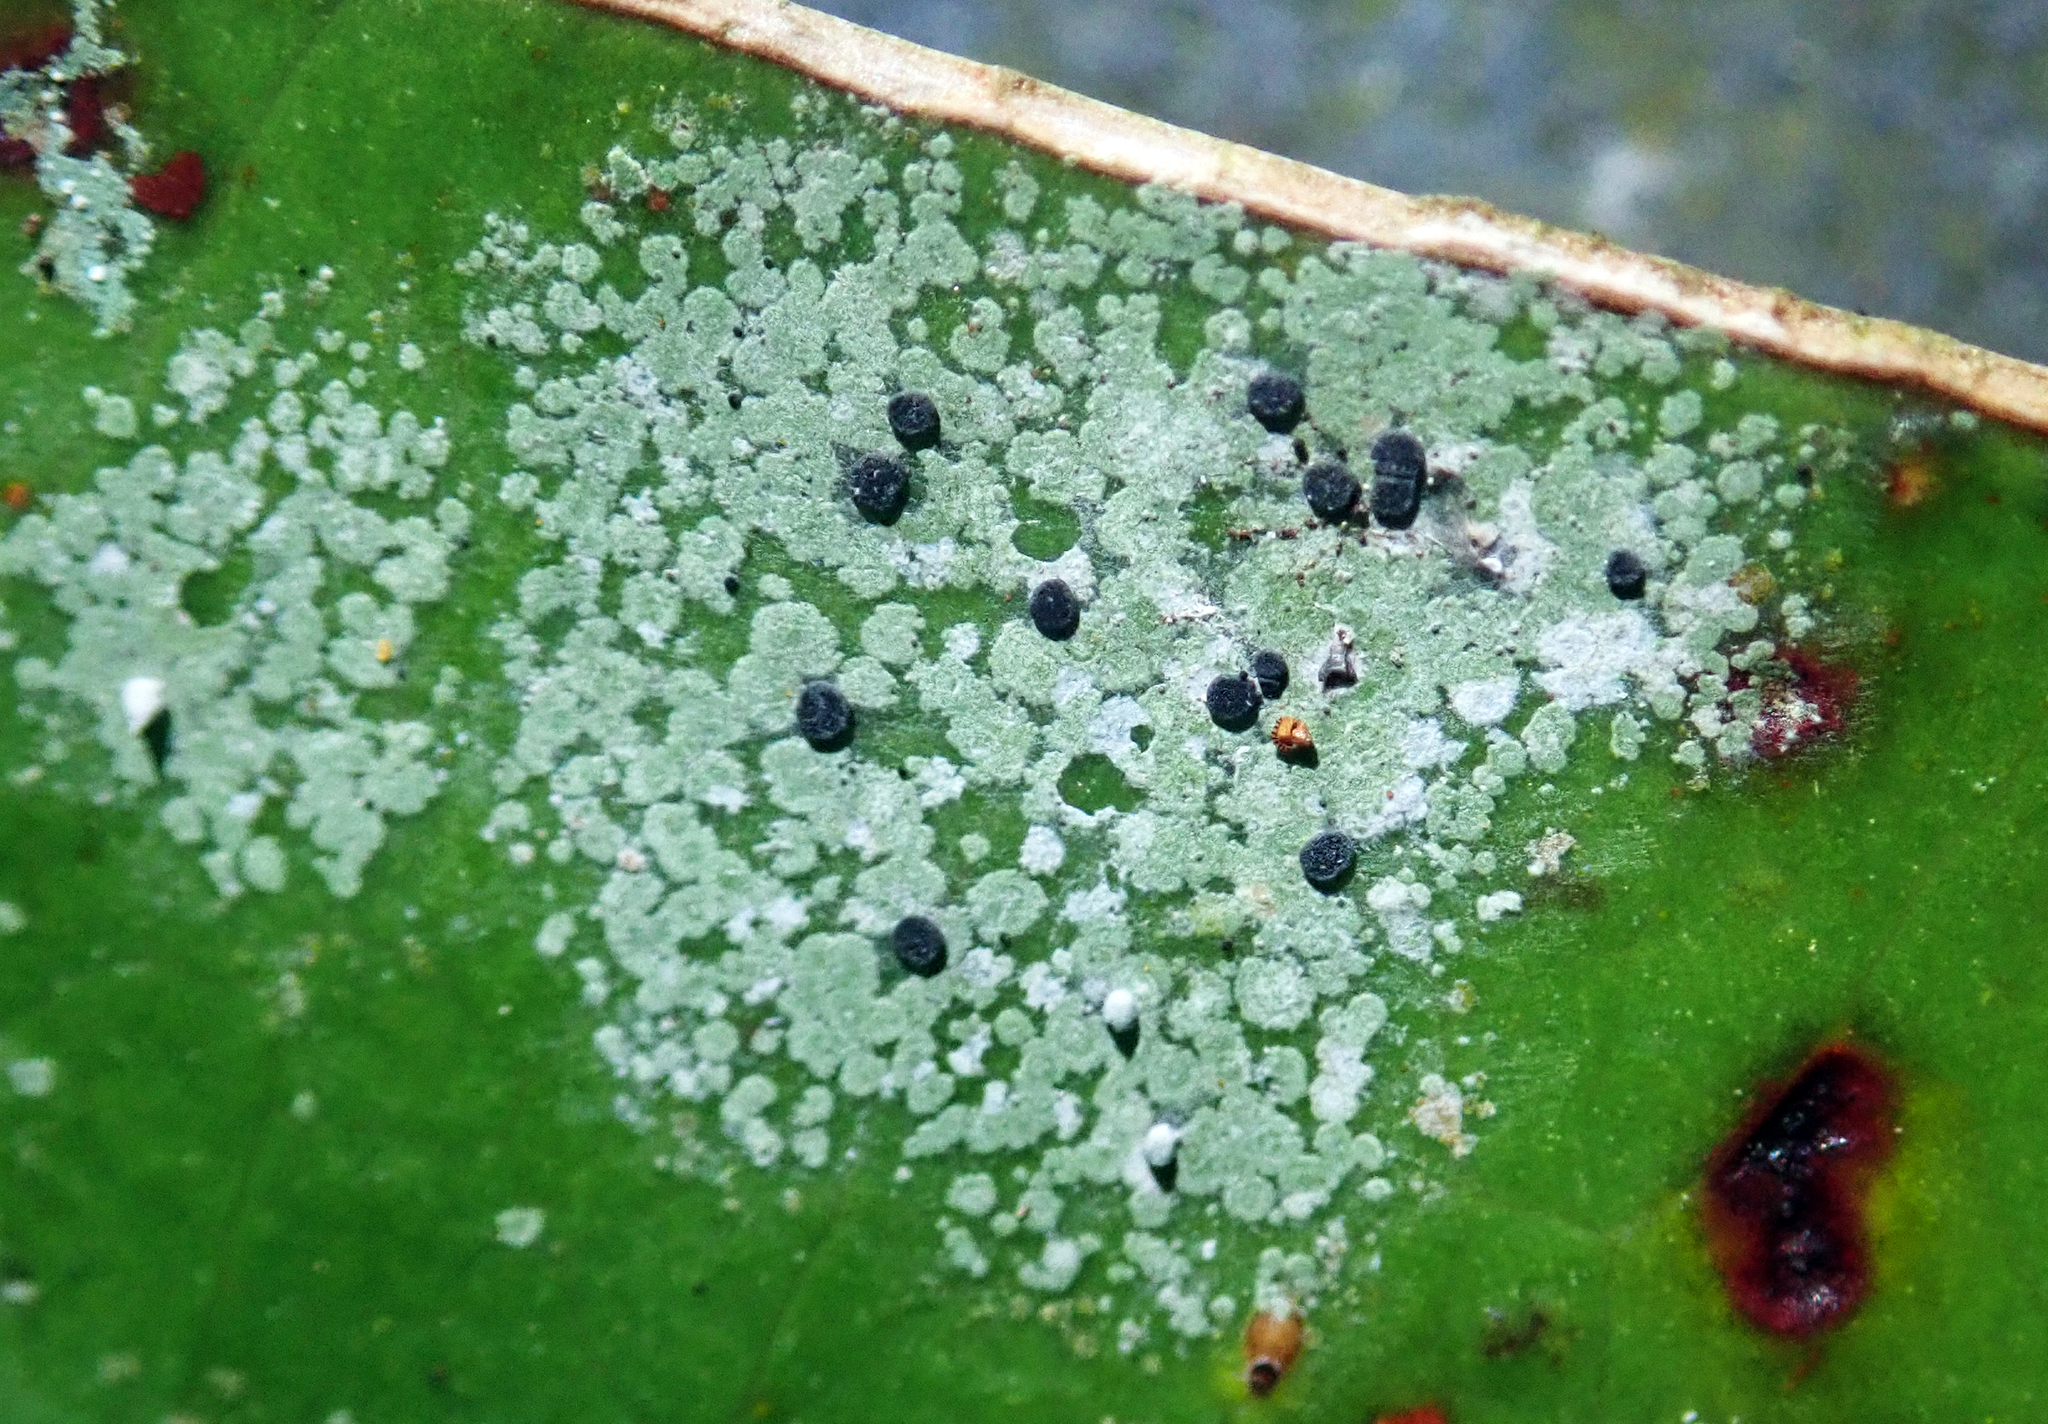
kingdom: Fungi
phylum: Ascomycota
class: Lecanoromycetes
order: Lecanorales
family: Byssolomataceae
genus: Calopadia
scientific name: Calopadia subcoerulescens
